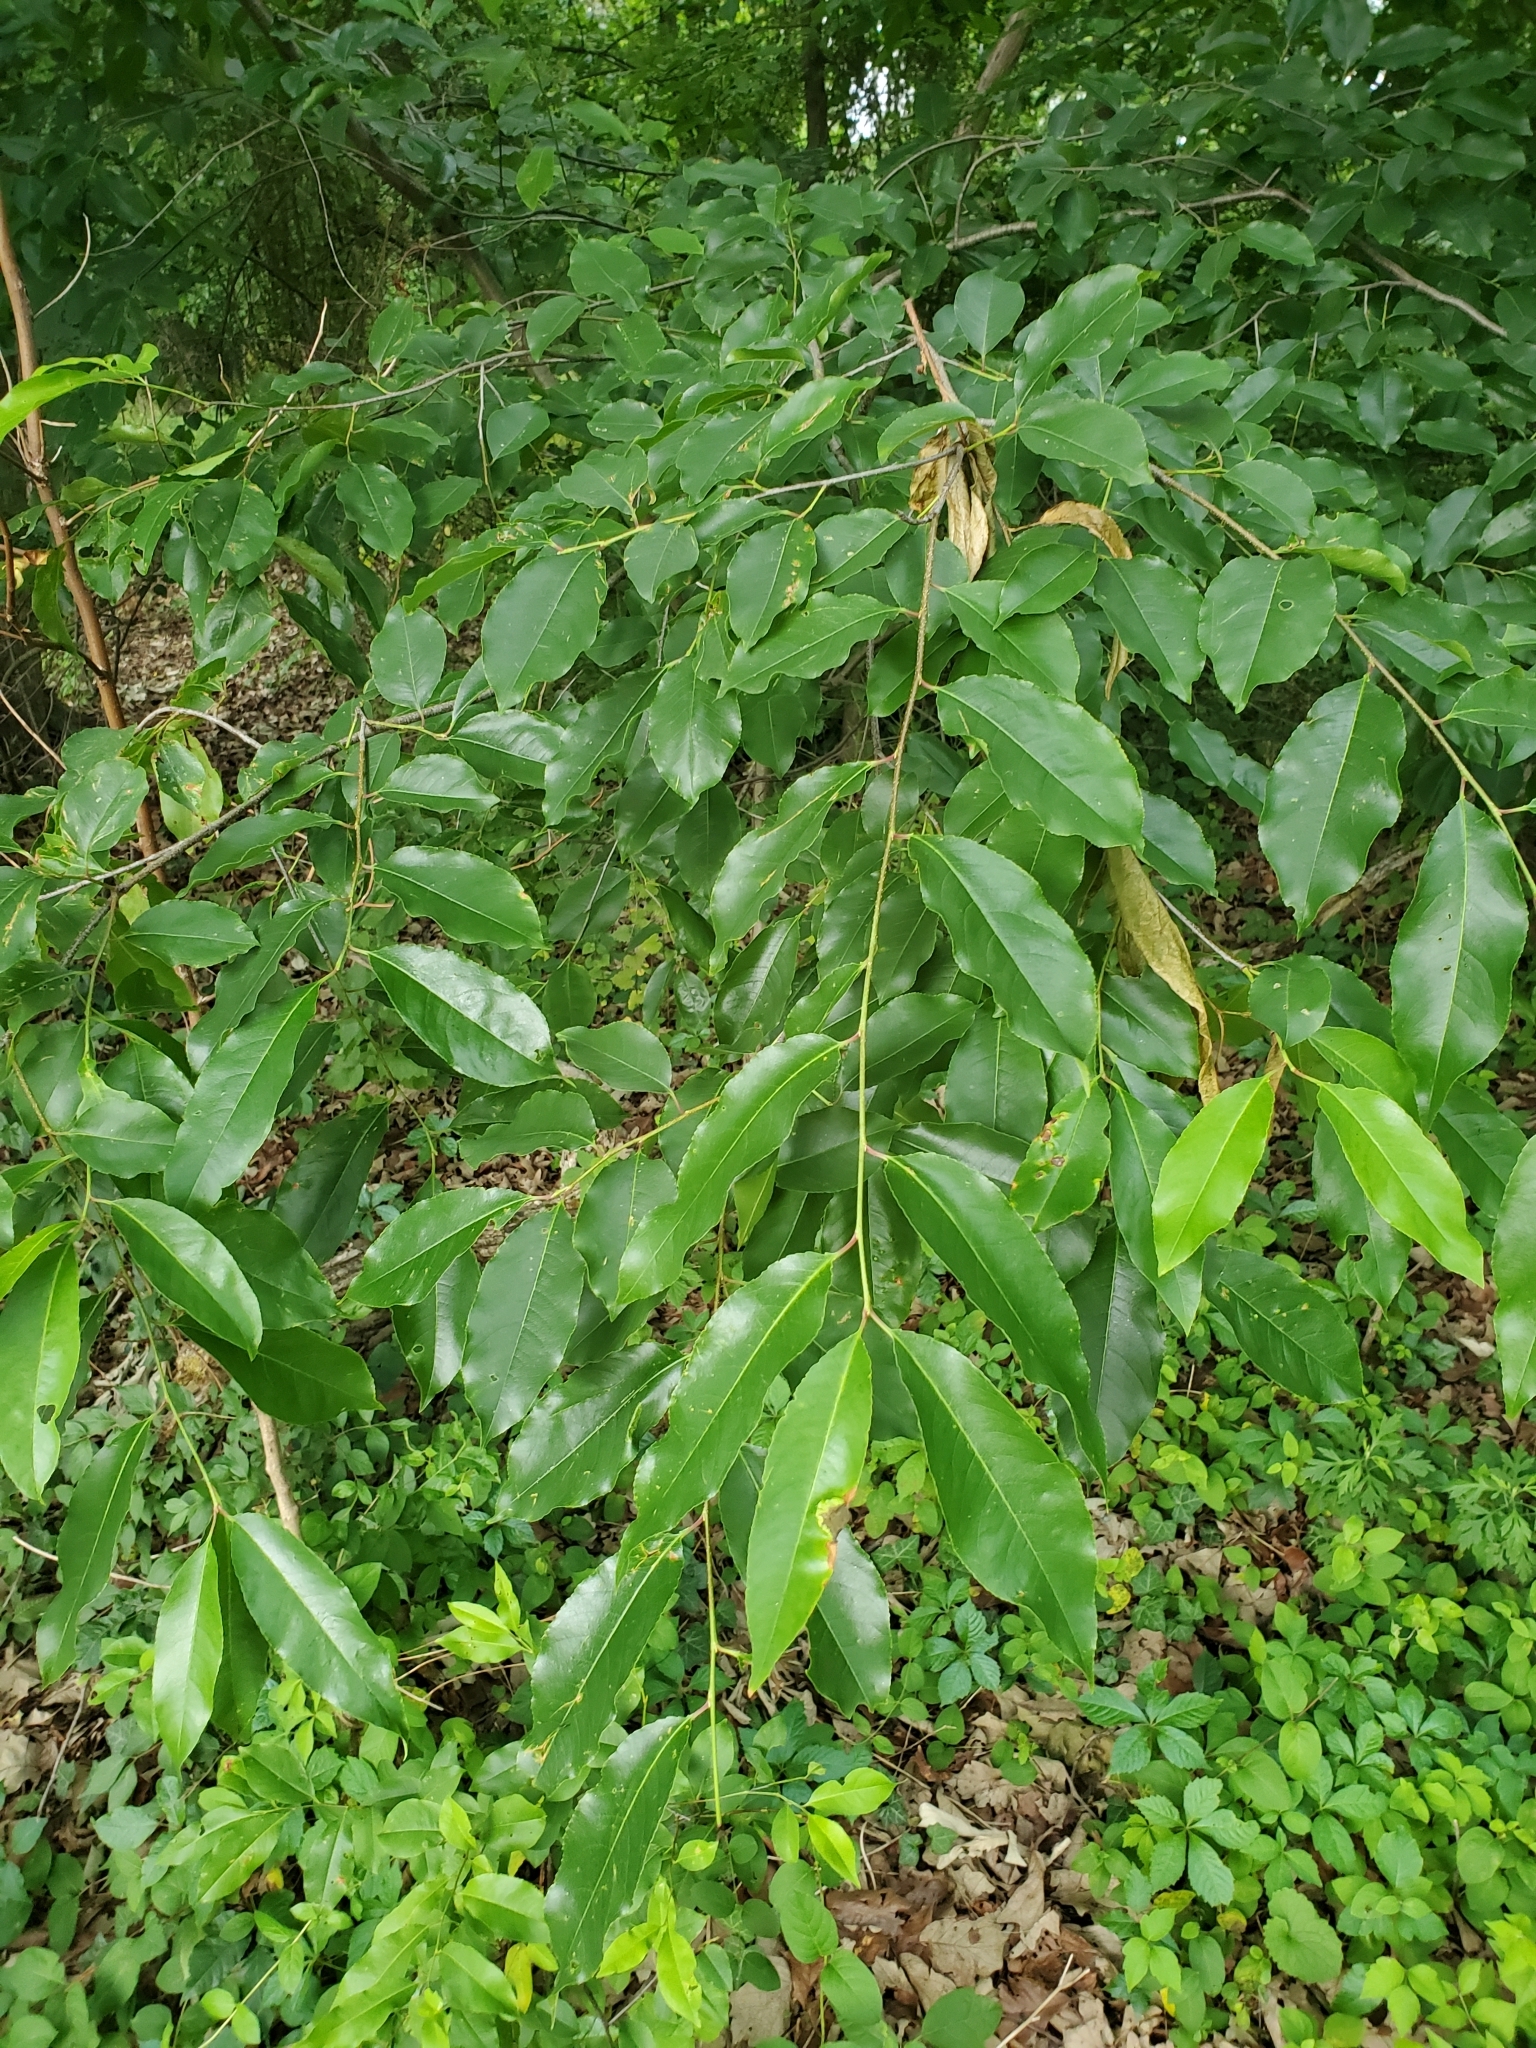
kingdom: Plantae
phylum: Tracheophyta
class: Magnoliopsida
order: Rosales
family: Rosaceae
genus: Prunus
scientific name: Prunus serotina
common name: Black cherry
